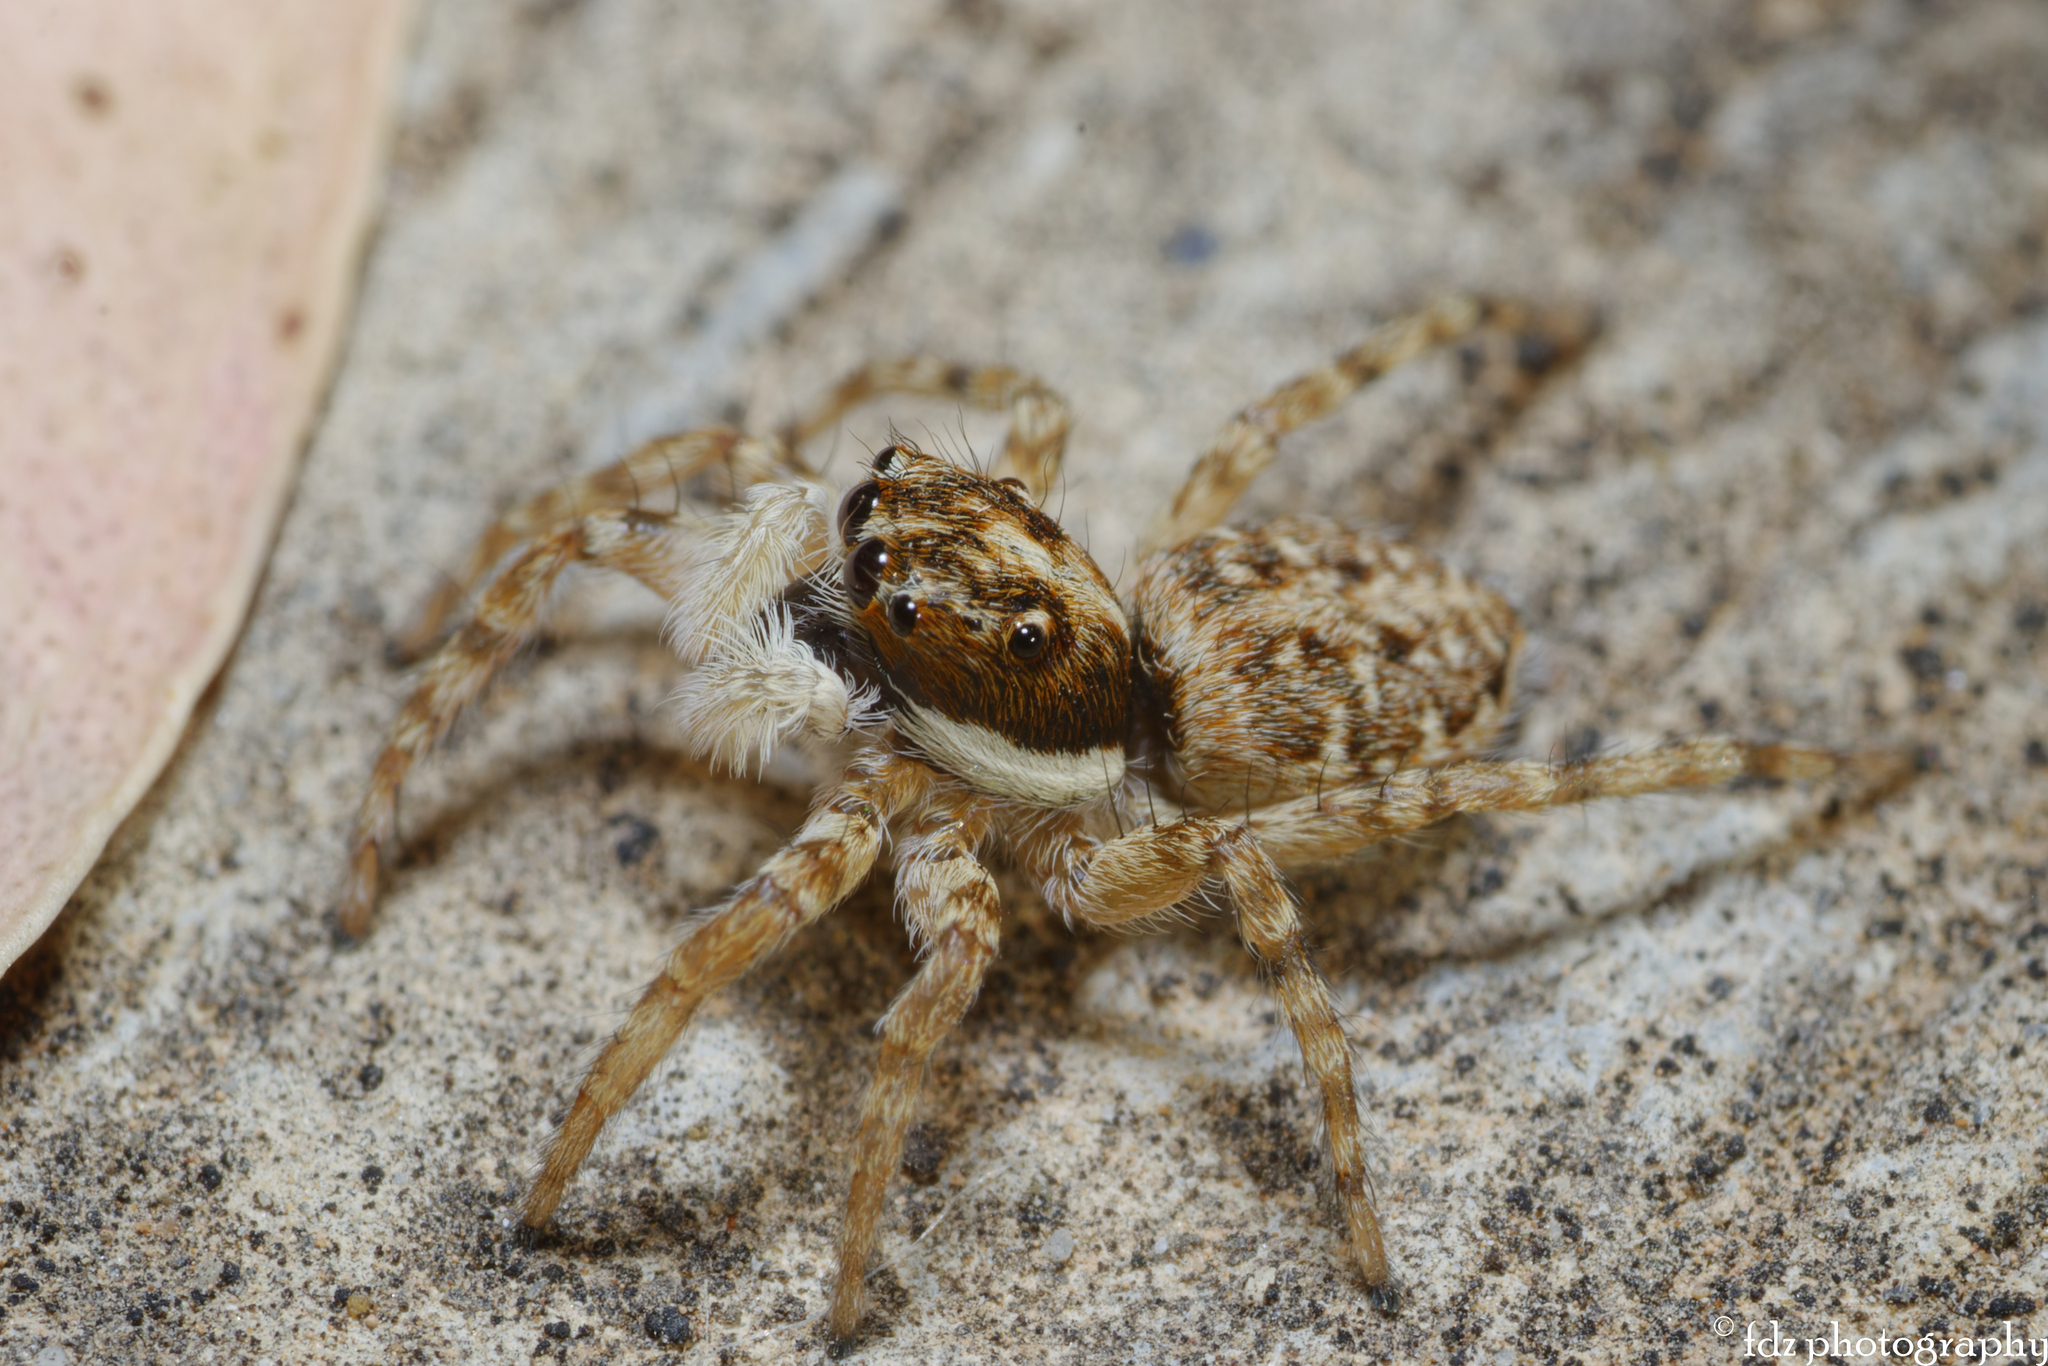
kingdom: Animalia
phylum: Arthropoda
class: Arachnida
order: Araneae
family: Salticidae
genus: Menemerus
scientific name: Menemerus semilimbatus
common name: Jumping spider
